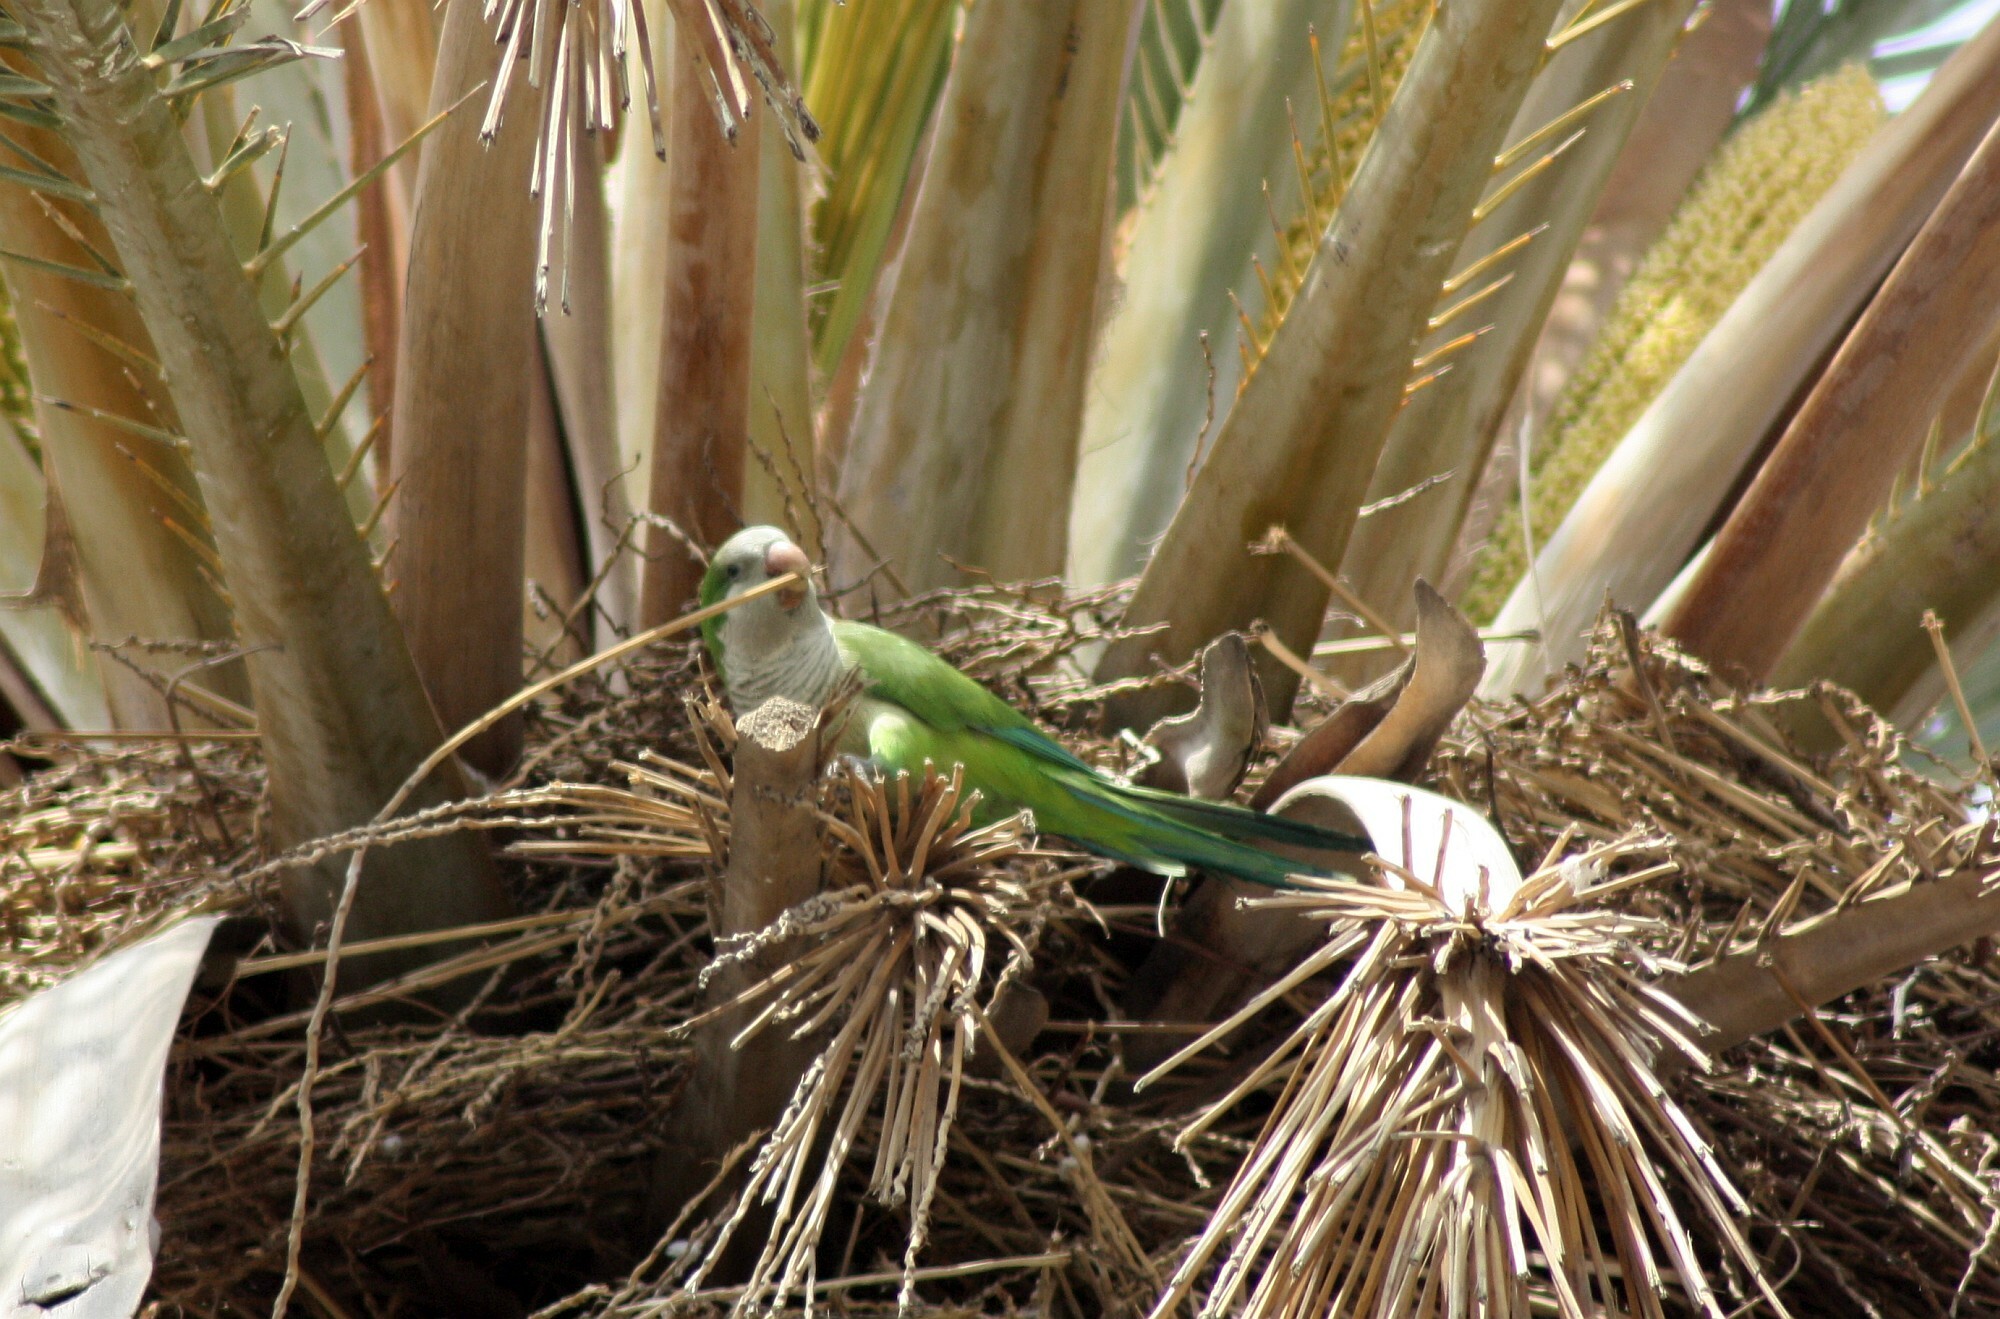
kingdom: Animalia
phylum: Chordata
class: Aves
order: Psittaciformes
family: Psittacidae
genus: Myiopsitta
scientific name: Myiopsitta monachus
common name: Monk parakeet
